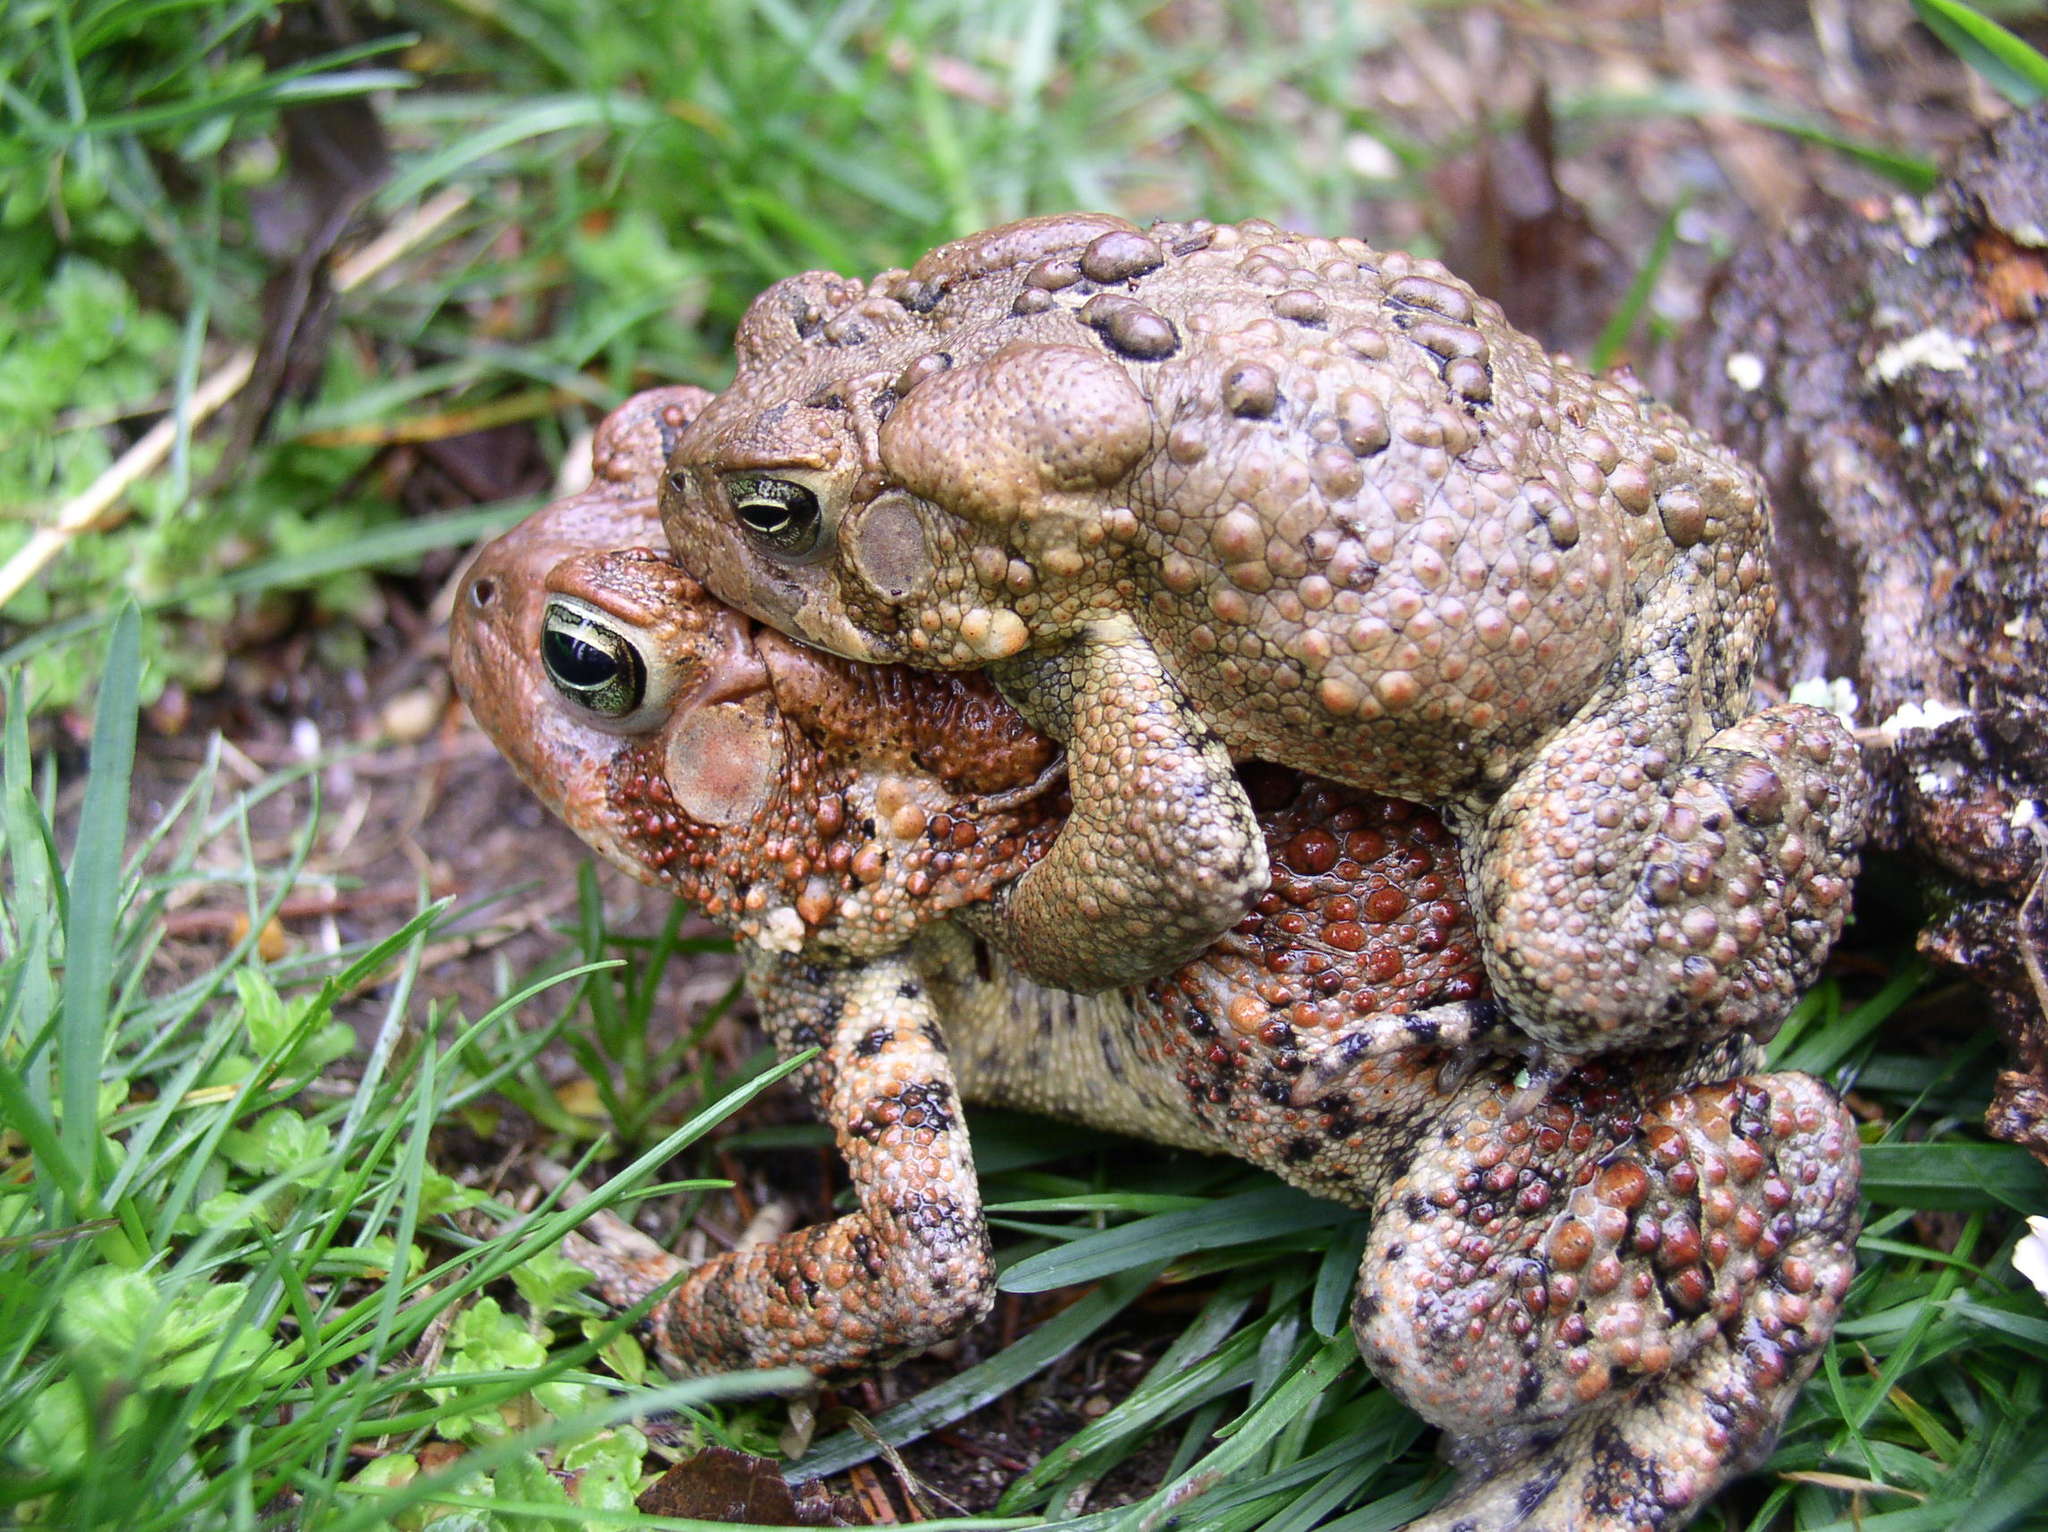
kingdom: Animalia
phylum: Chordata
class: Amphibia
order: Anura
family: Bufonidae
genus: Anaxyrus
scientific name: Anaxyrus americanus
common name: American toad
